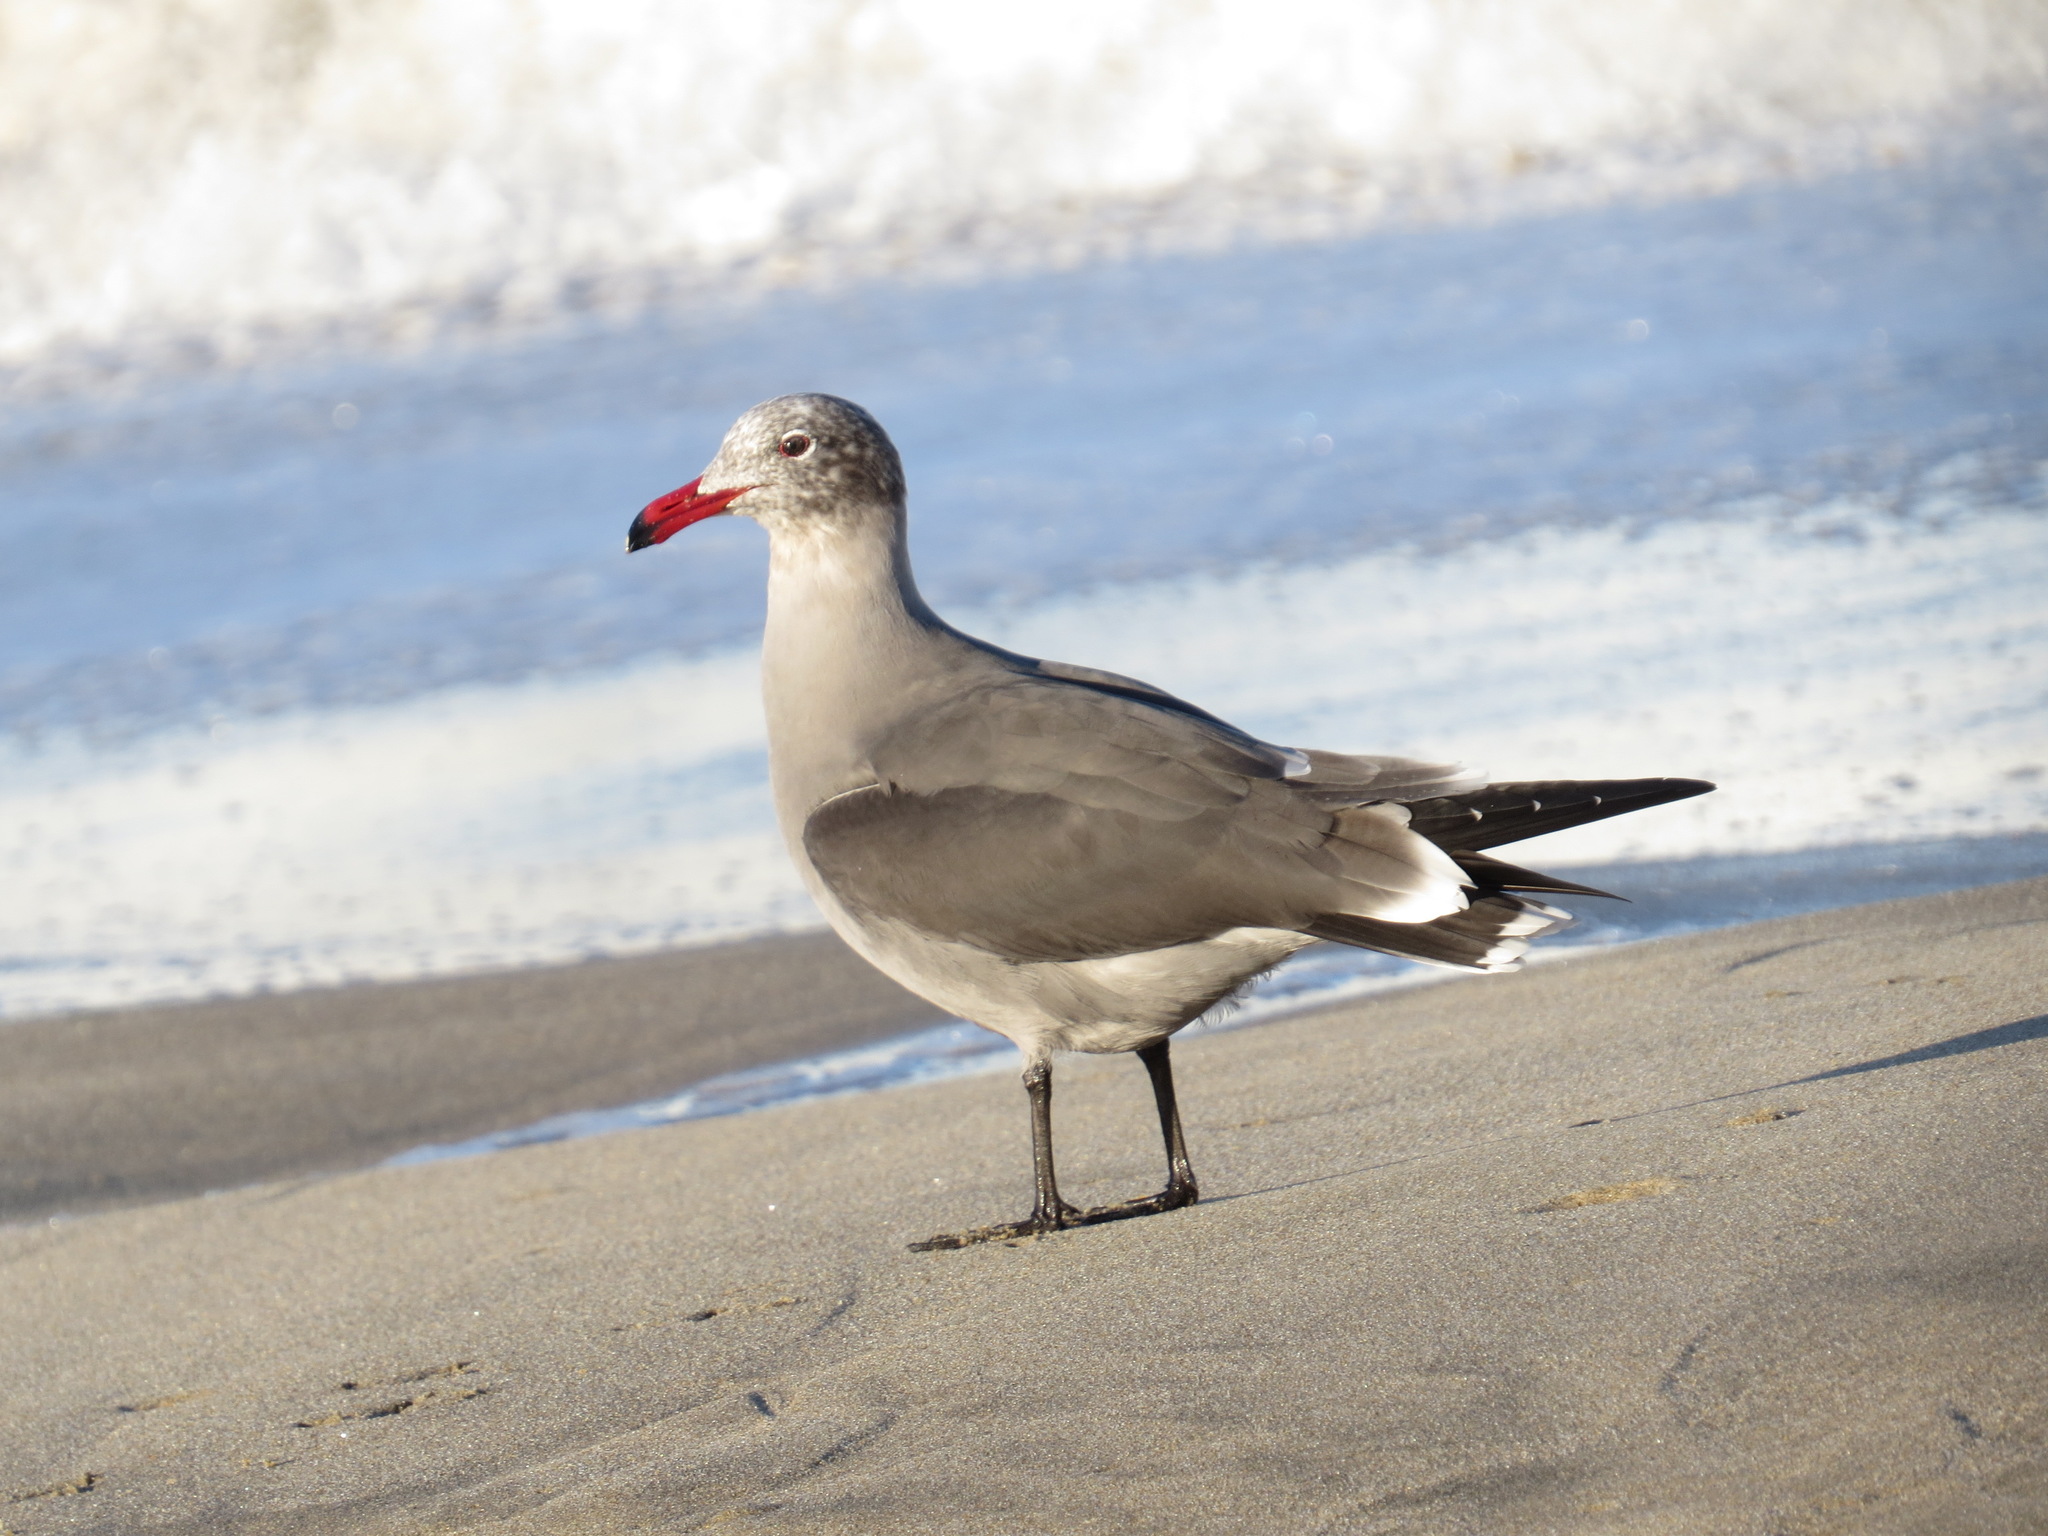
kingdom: Animalia
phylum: Chordata
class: Aves
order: Charadriiformes
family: Laridae
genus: Larus
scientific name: Larus heermanni
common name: Heermann's gull
